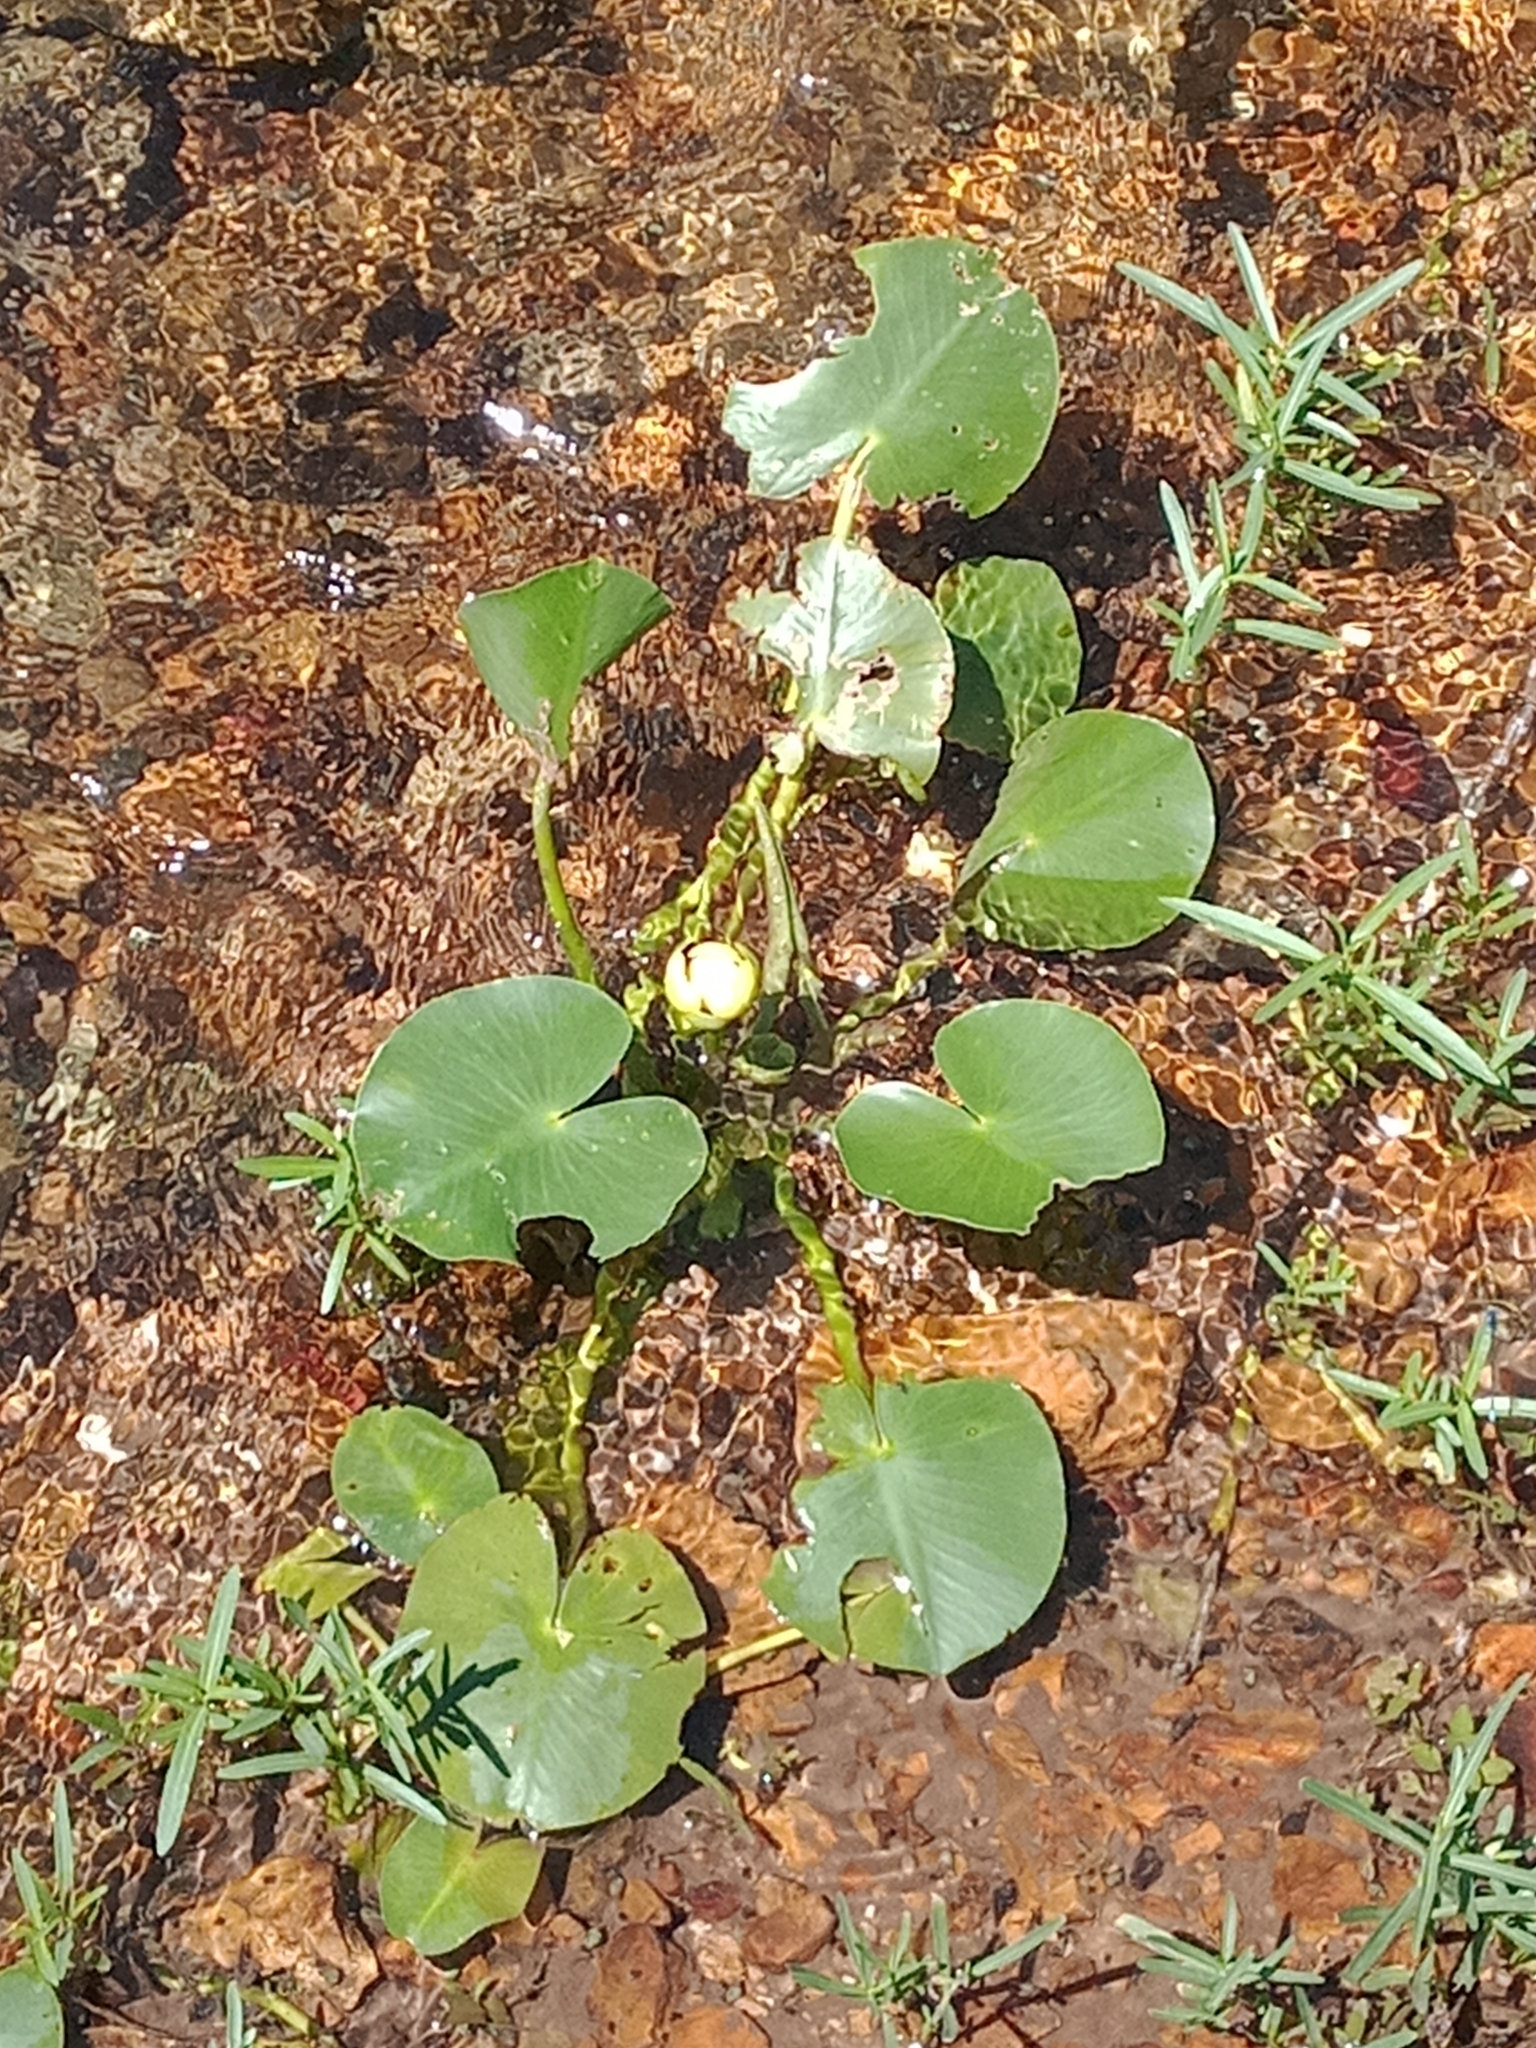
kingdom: Plantae
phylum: Tracheophyta
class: Magnoliopsida
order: Nymphaeales
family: Nymphaeaceae
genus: Nuphar
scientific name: Nuphar advena
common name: Spatter-dock
